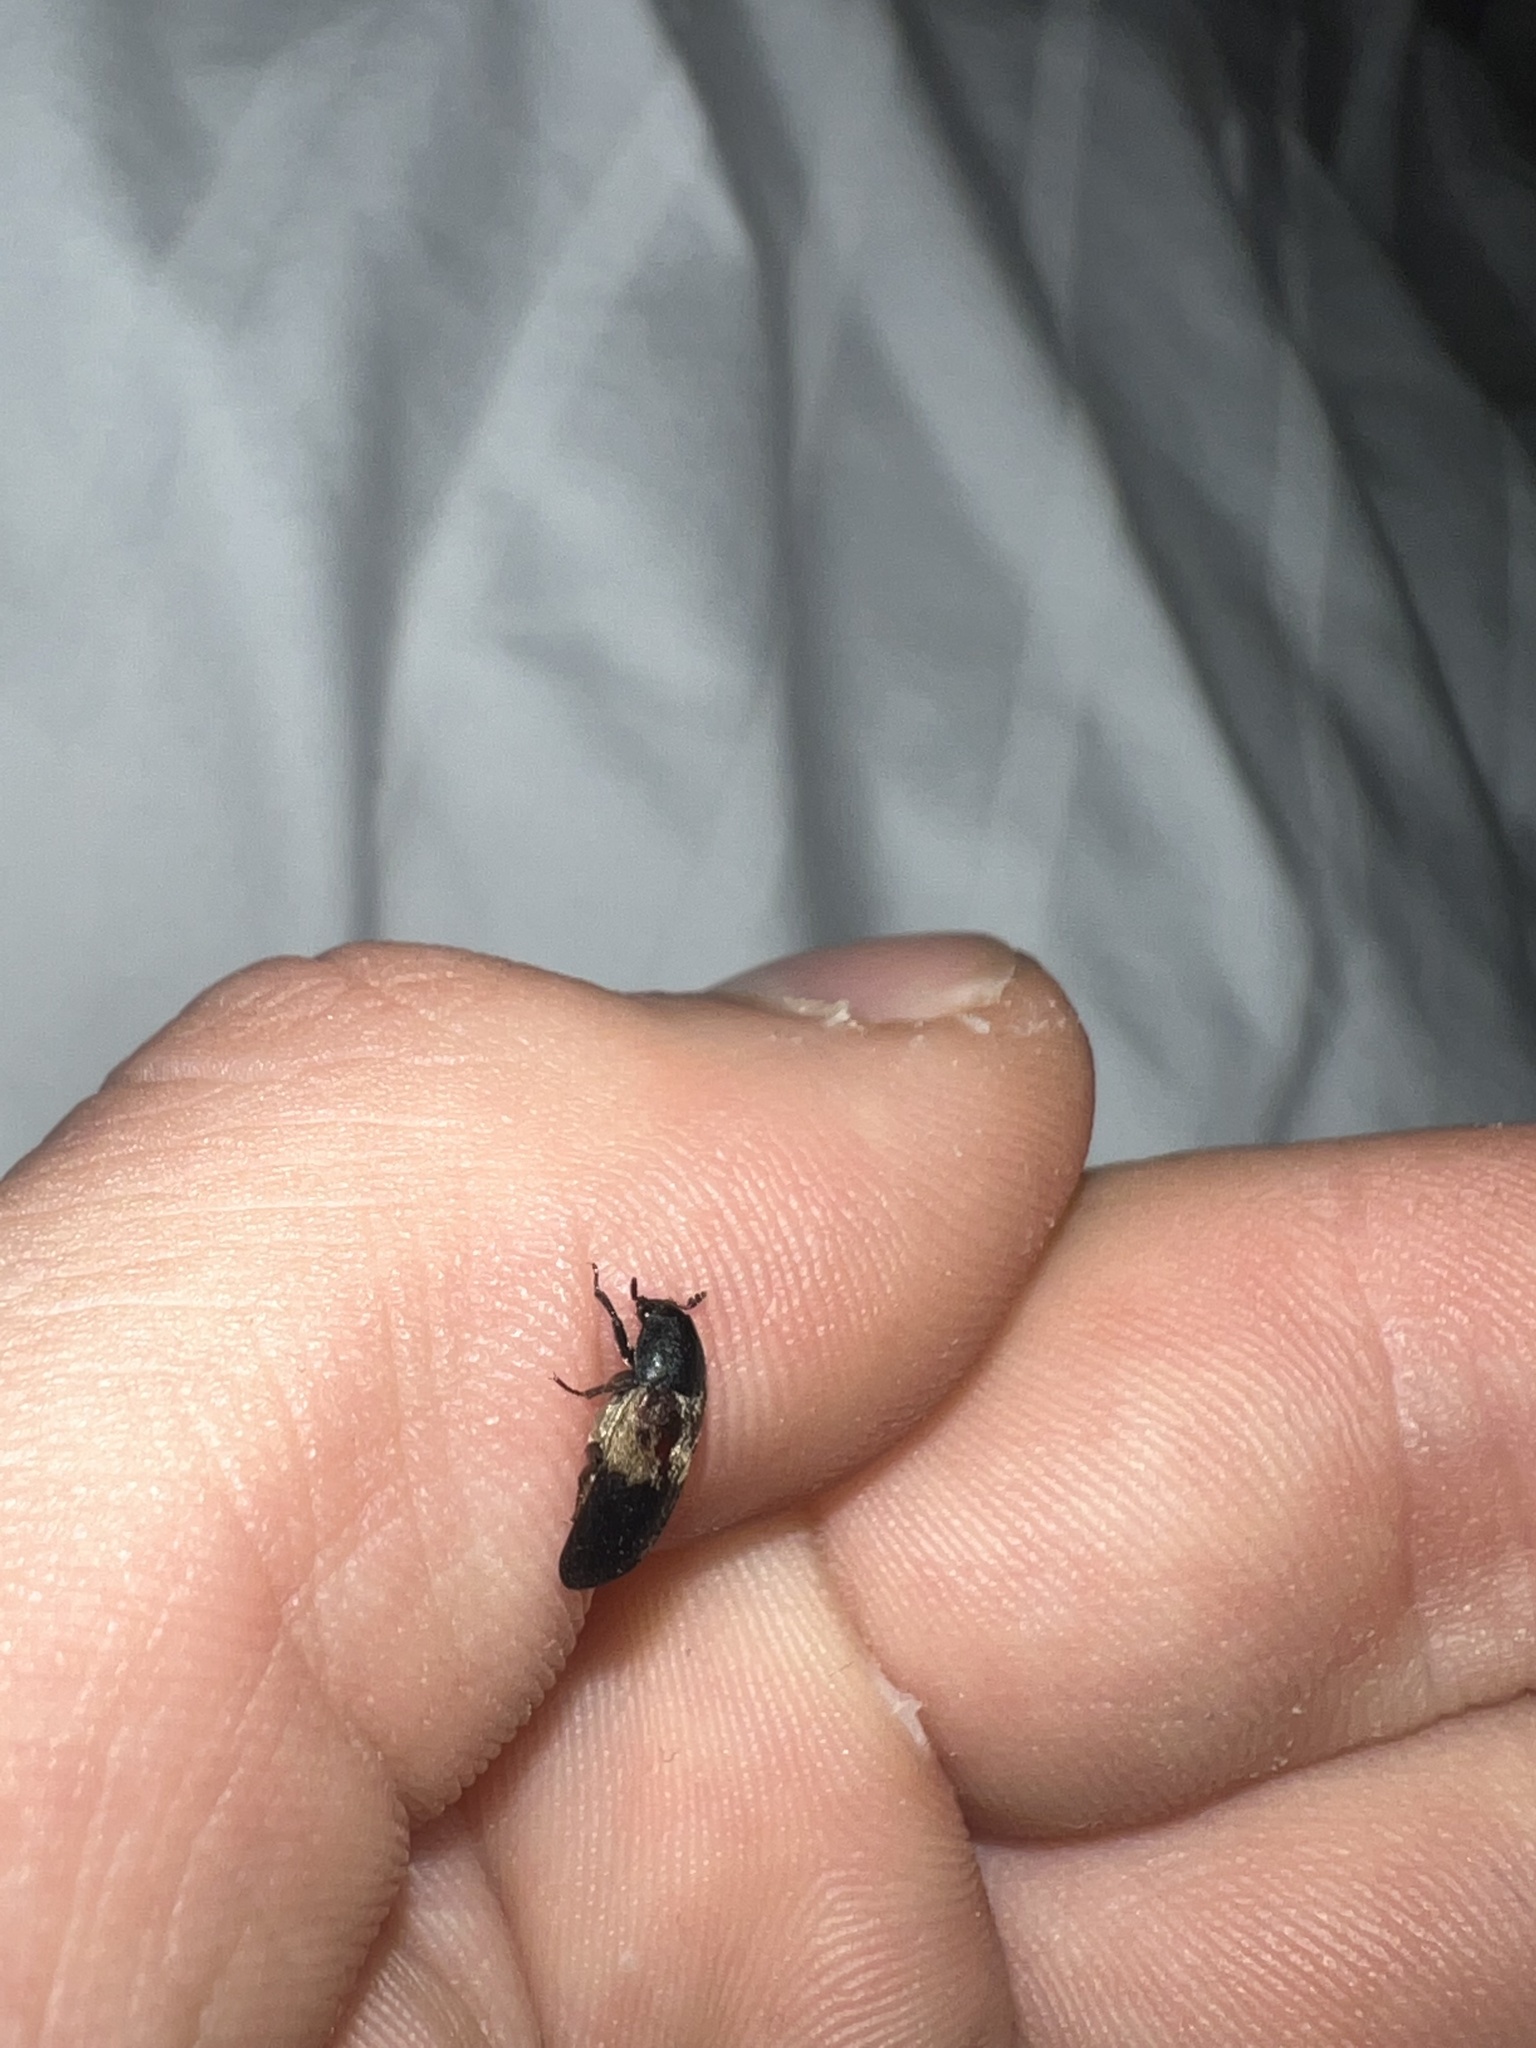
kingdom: Animalia
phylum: Arthropoda
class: Insecta
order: Coleoptera
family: Dermestidae
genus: Dermestes
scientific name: Dermestes lardarius
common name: Larder beetle
